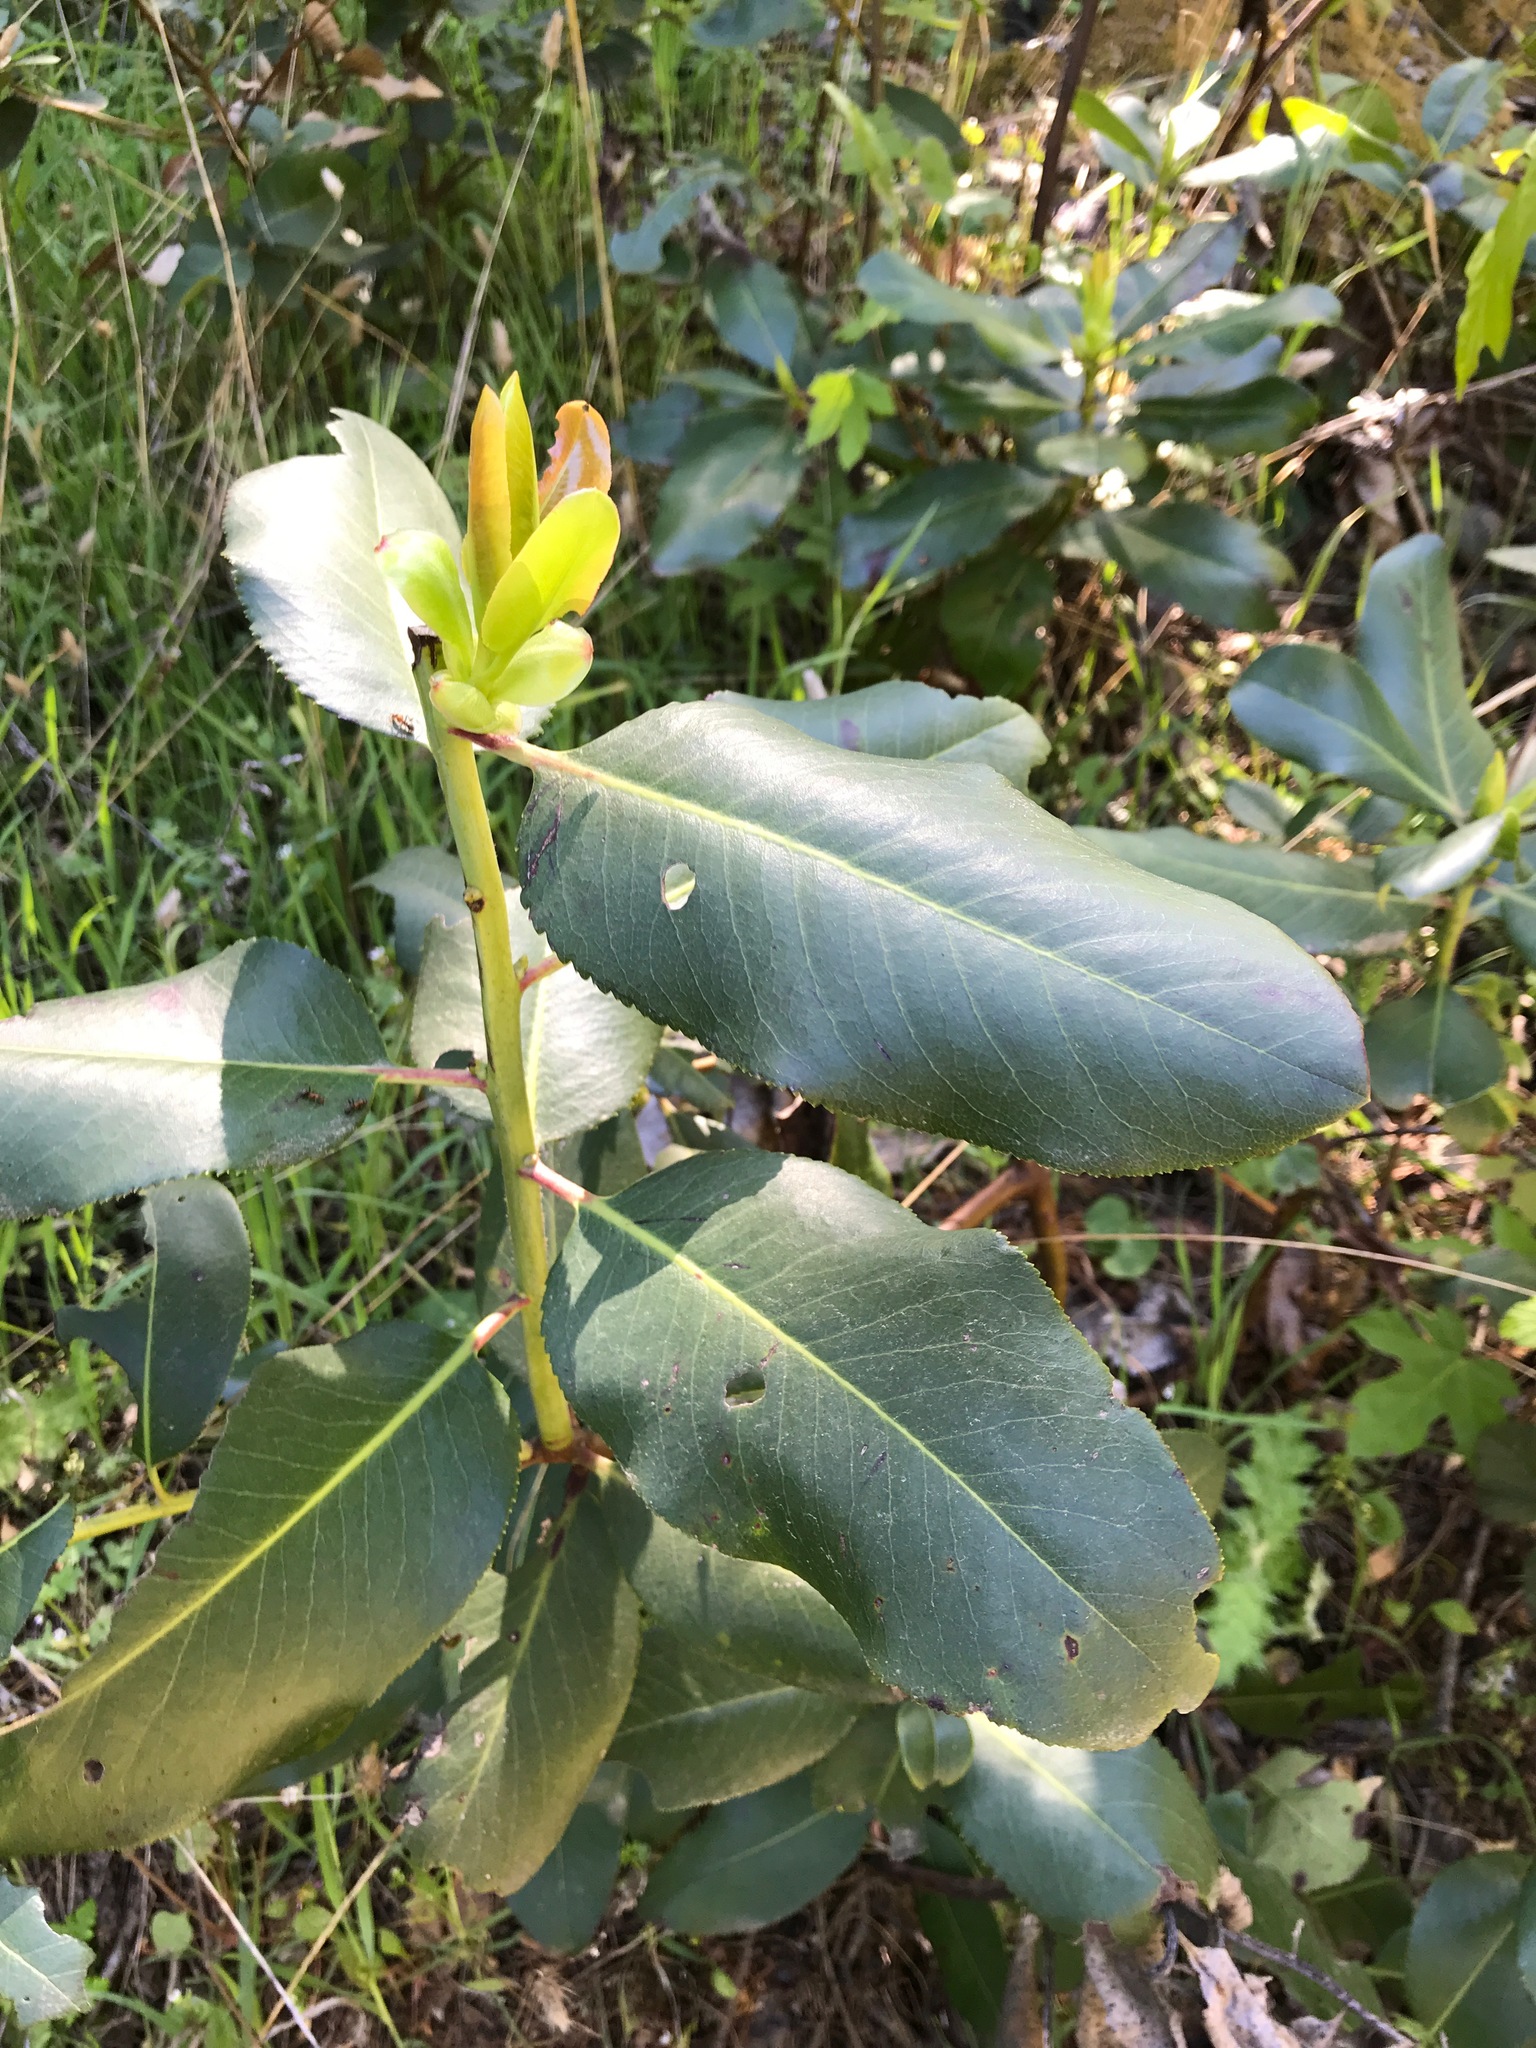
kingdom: Plantae
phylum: Tracheophyta
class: Magnoliopsida
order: Ericales
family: Ericaceae
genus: Arbutus
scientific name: Arbutus menziesii
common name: Pacific madrone
